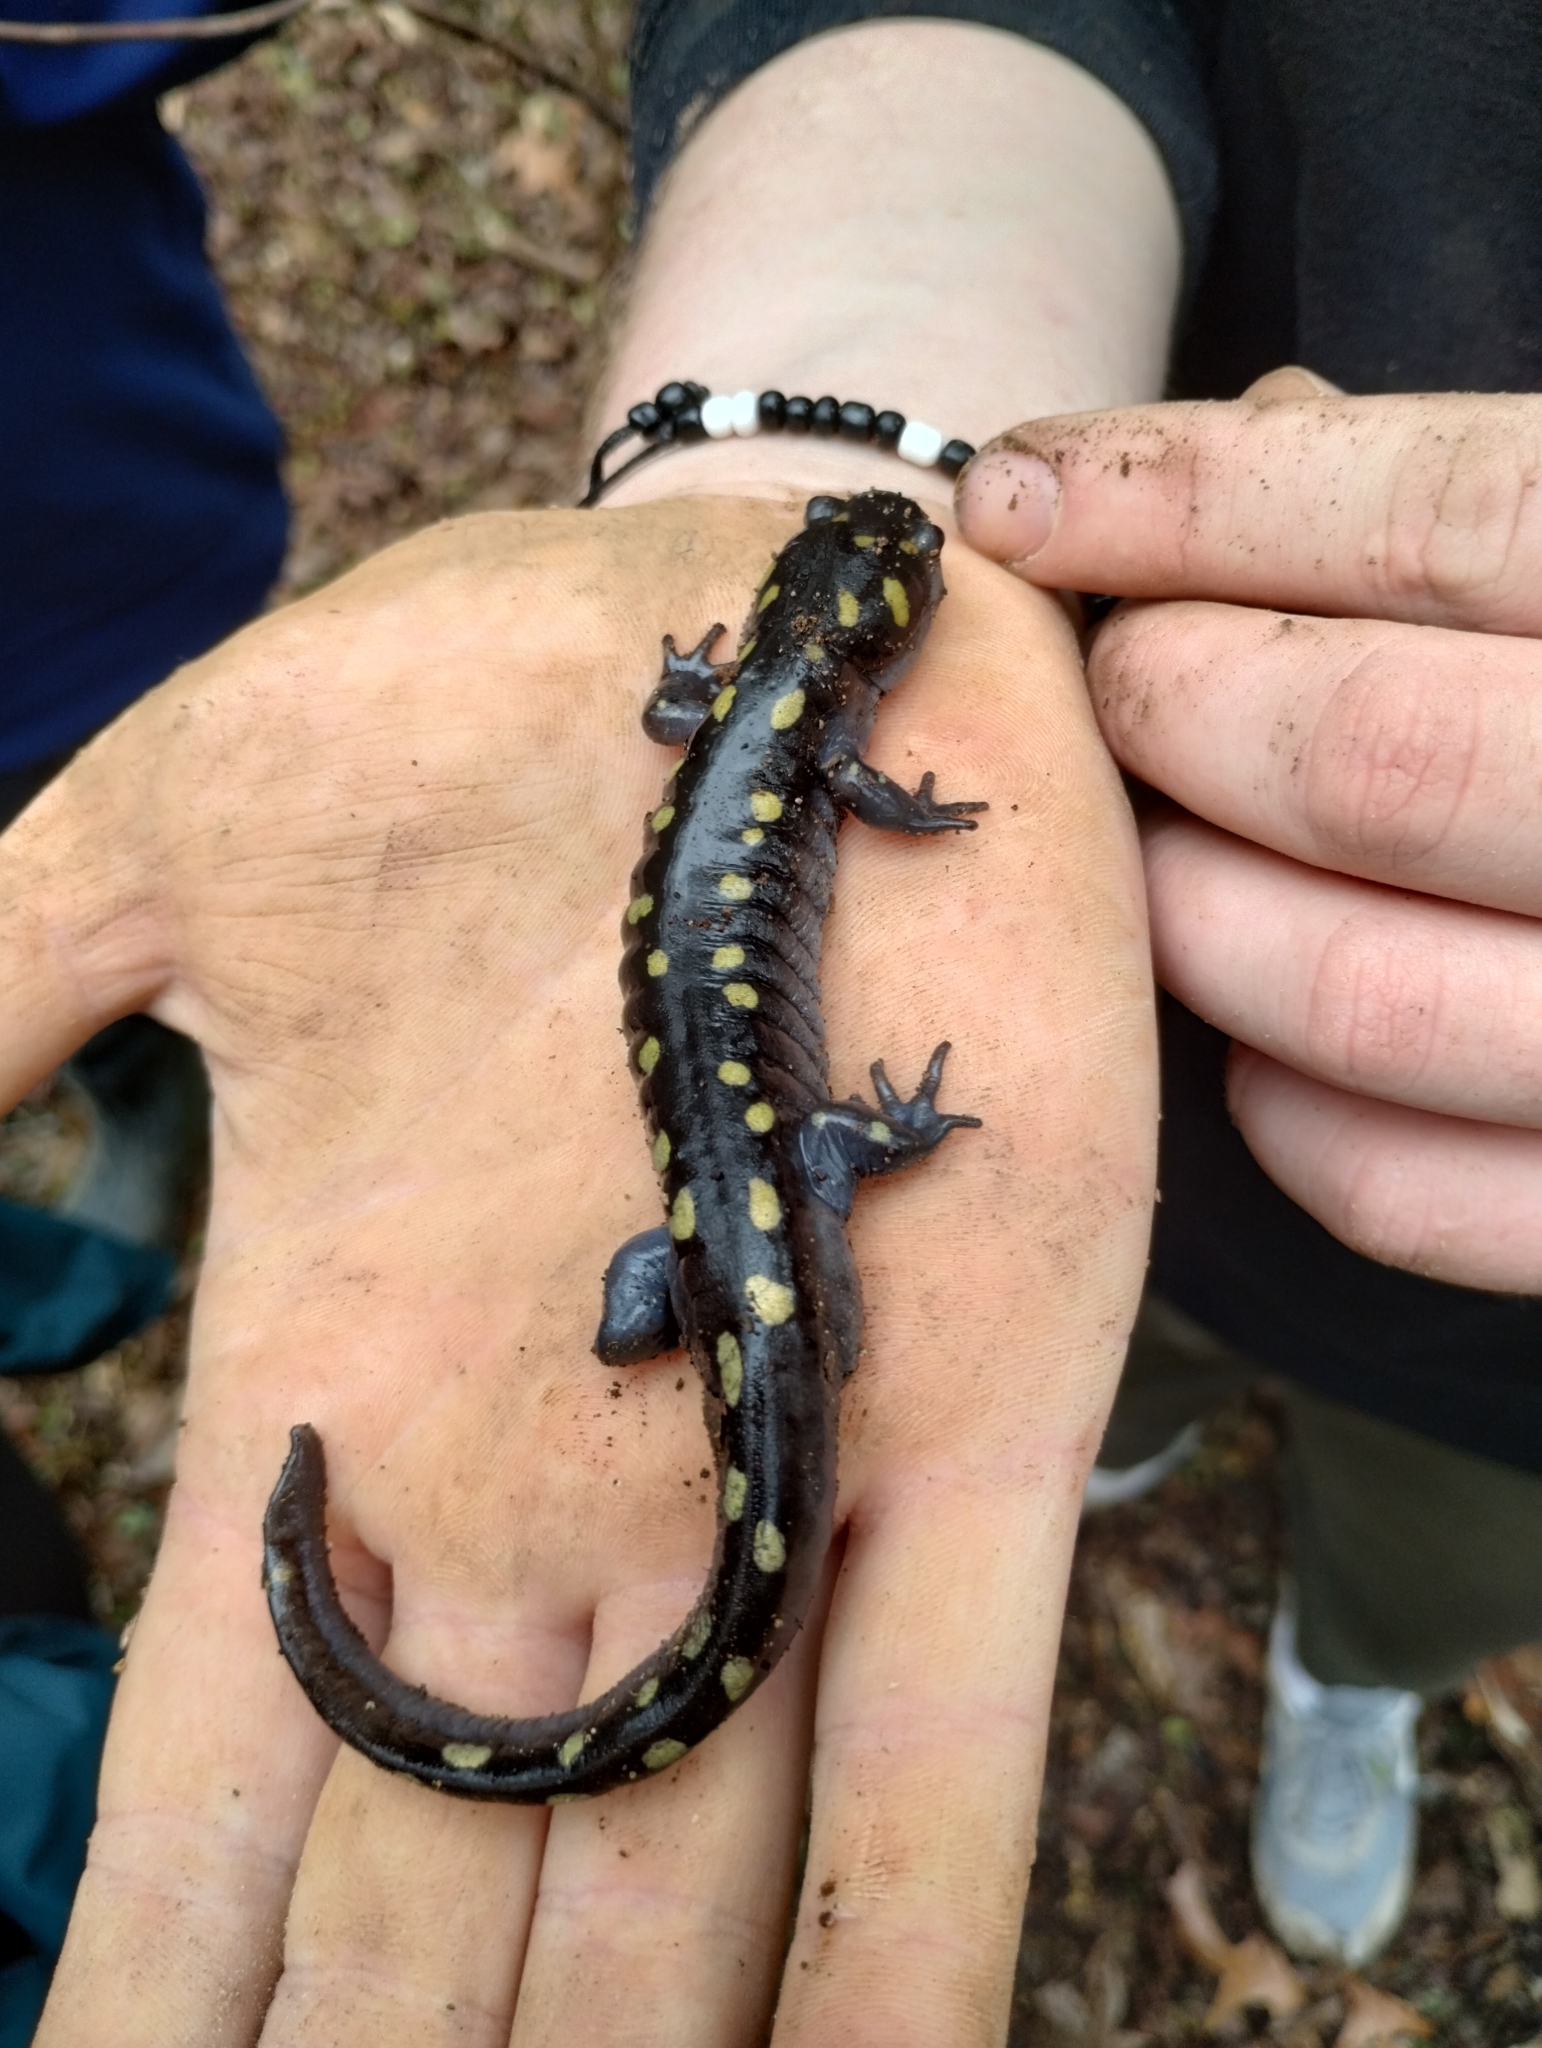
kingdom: Animalia
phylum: Chordata
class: Amphibia
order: Caudata
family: Ambystomatidae
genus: Ambystoma
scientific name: Ambystoma maculatum
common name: Spotted salamander
